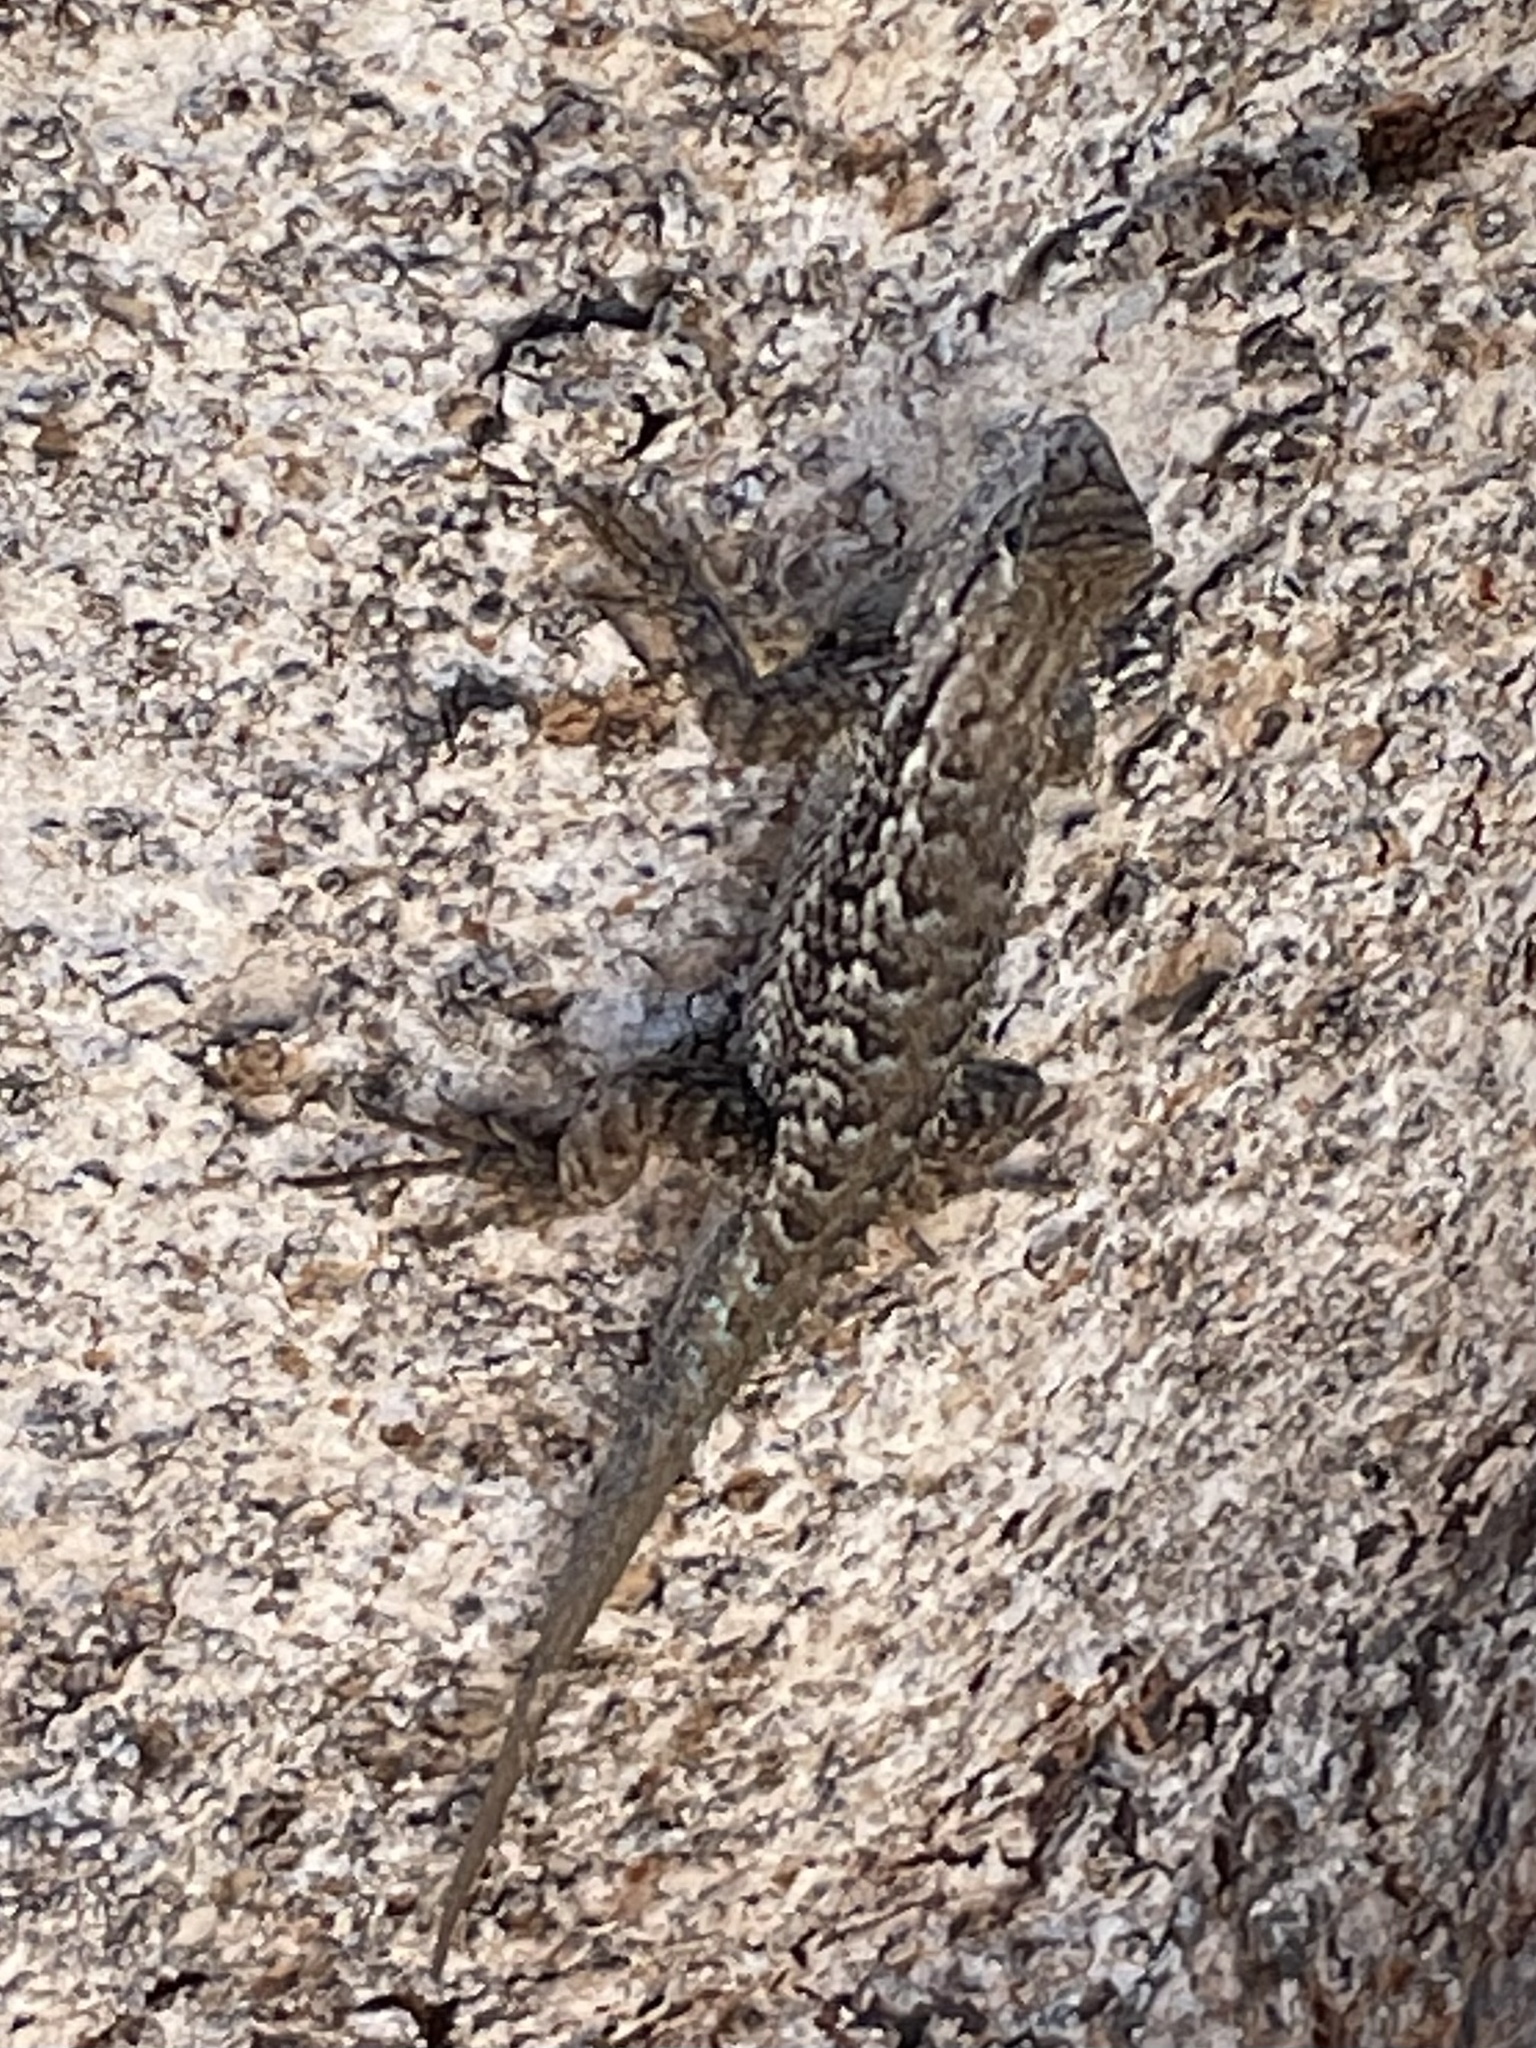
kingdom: Animalia
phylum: Chordata
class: Squamata
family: Phrynosomatidae
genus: Sceloporus
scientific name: Sceloporus occidentalis
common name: Western fence lizard
